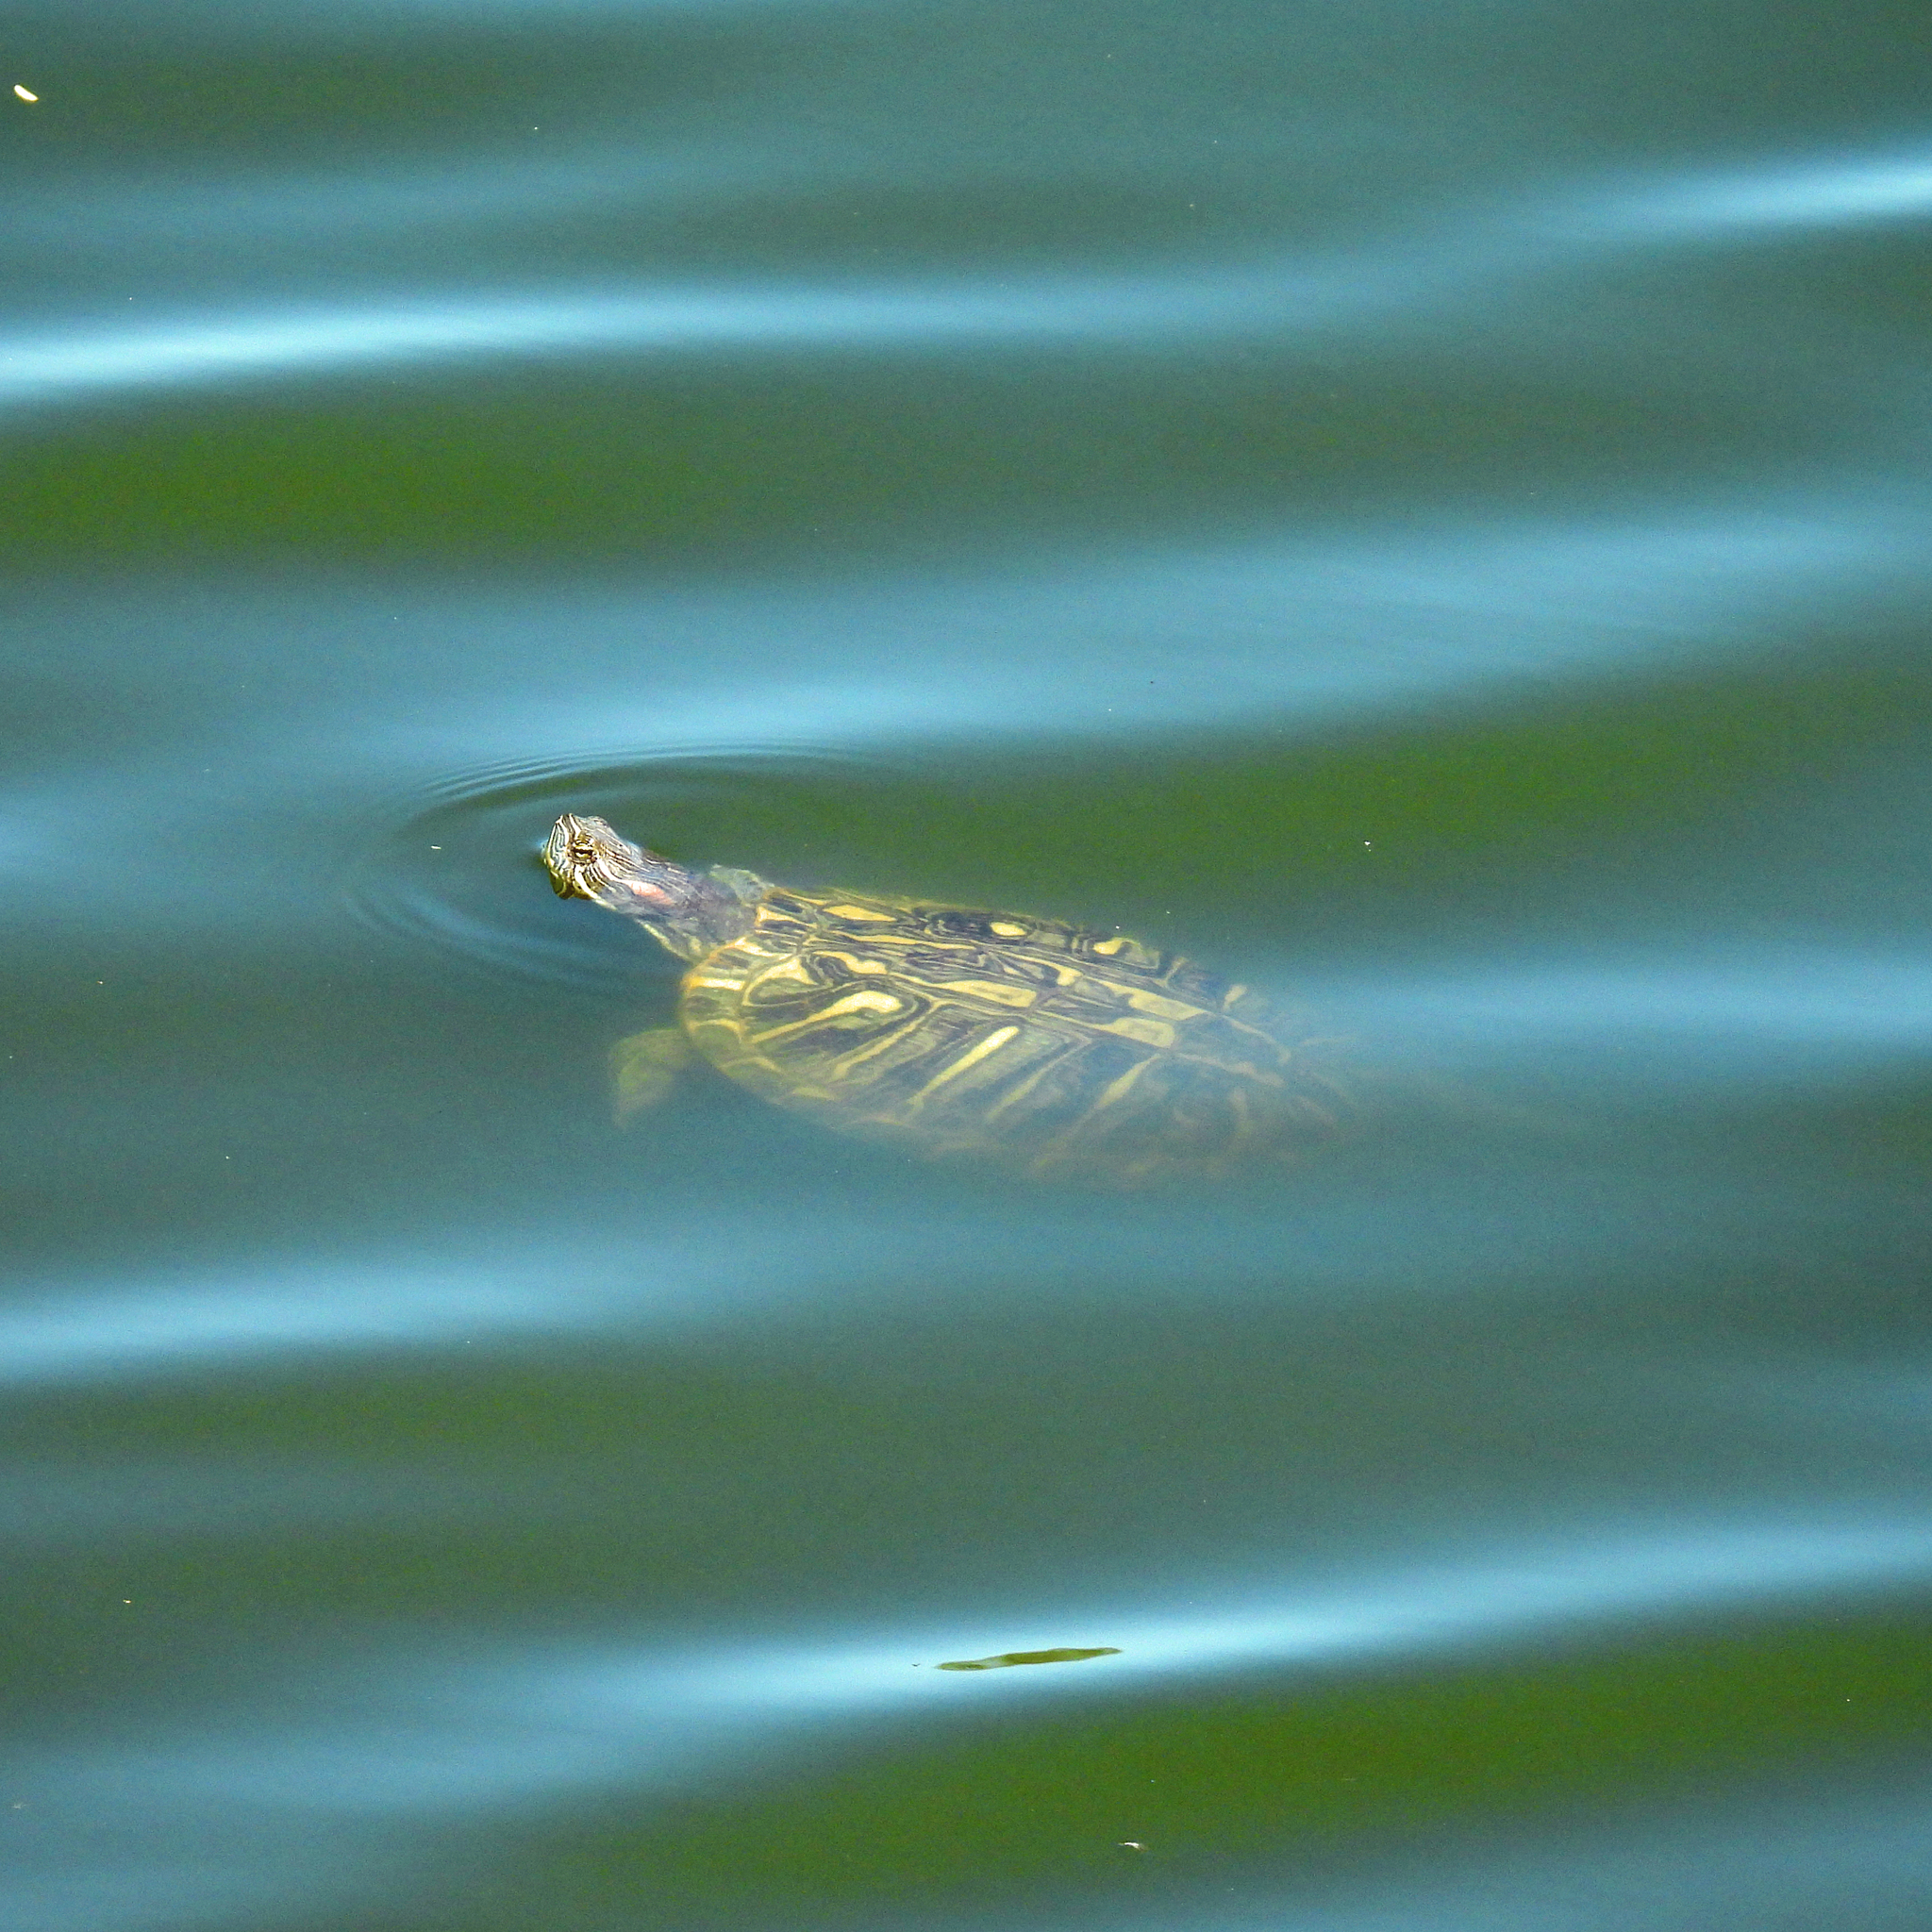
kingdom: Animalia
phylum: Chordata
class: Testudines
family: Emydidae
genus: Trachemys
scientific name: Trachemys scripta
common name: Slider
